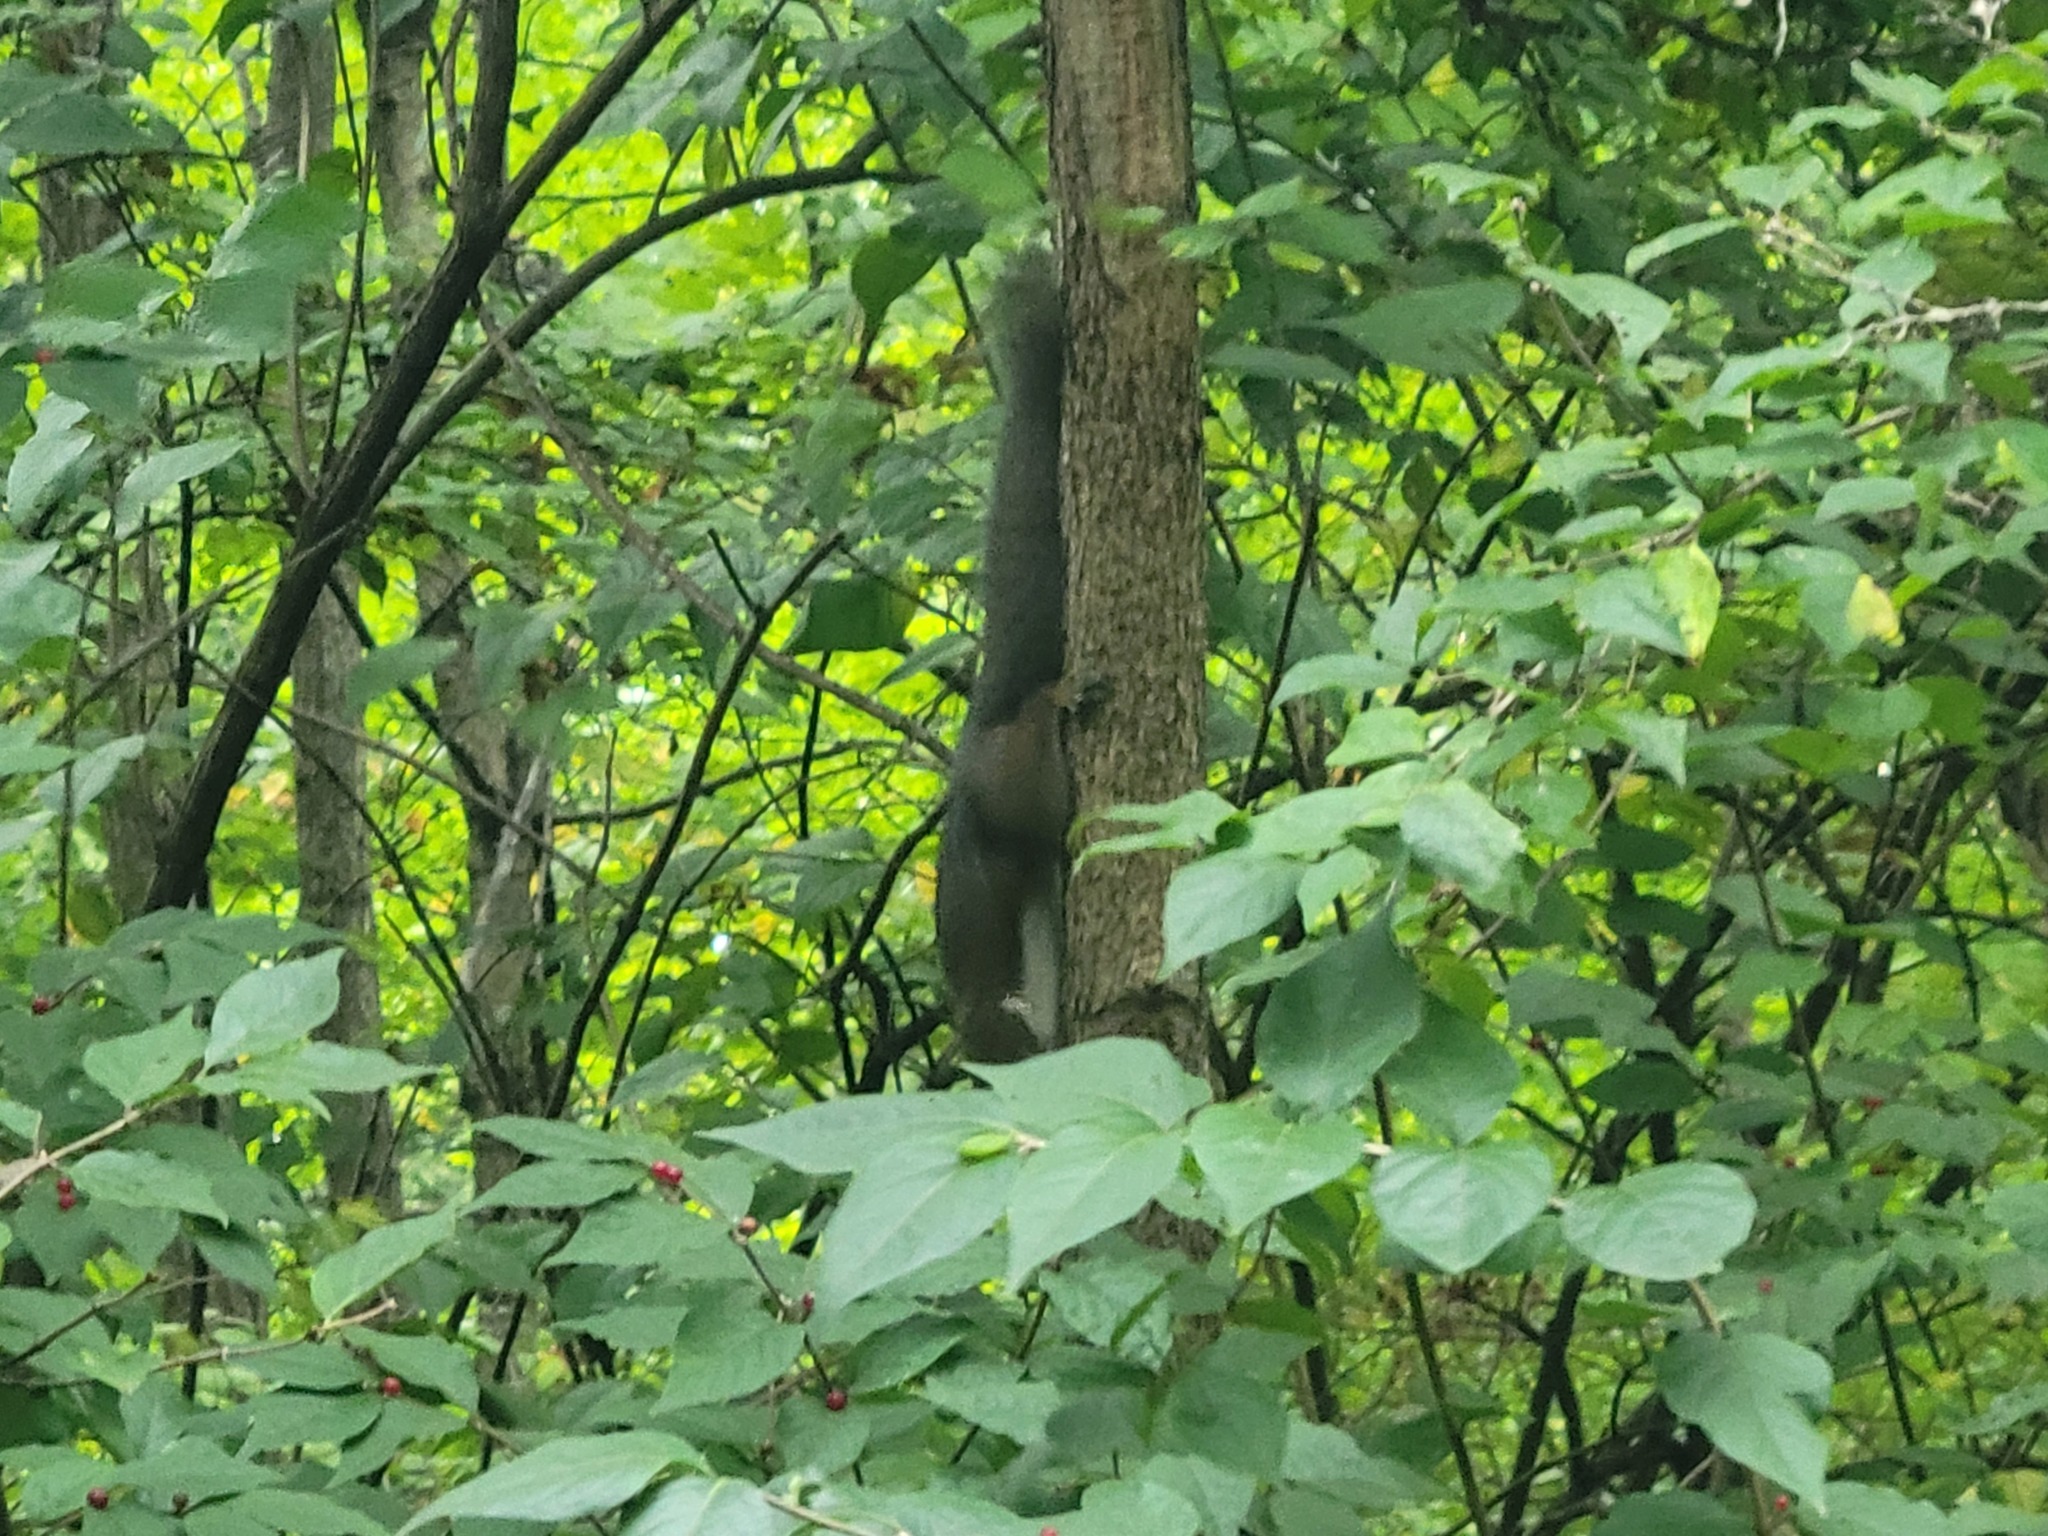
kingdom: Animalia
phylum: Chordata
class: Mammalia
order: Rodentia
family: Sciuridae
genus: Sciurus
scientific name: Sciurus carolinensis
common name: Eastern gray squirrel
